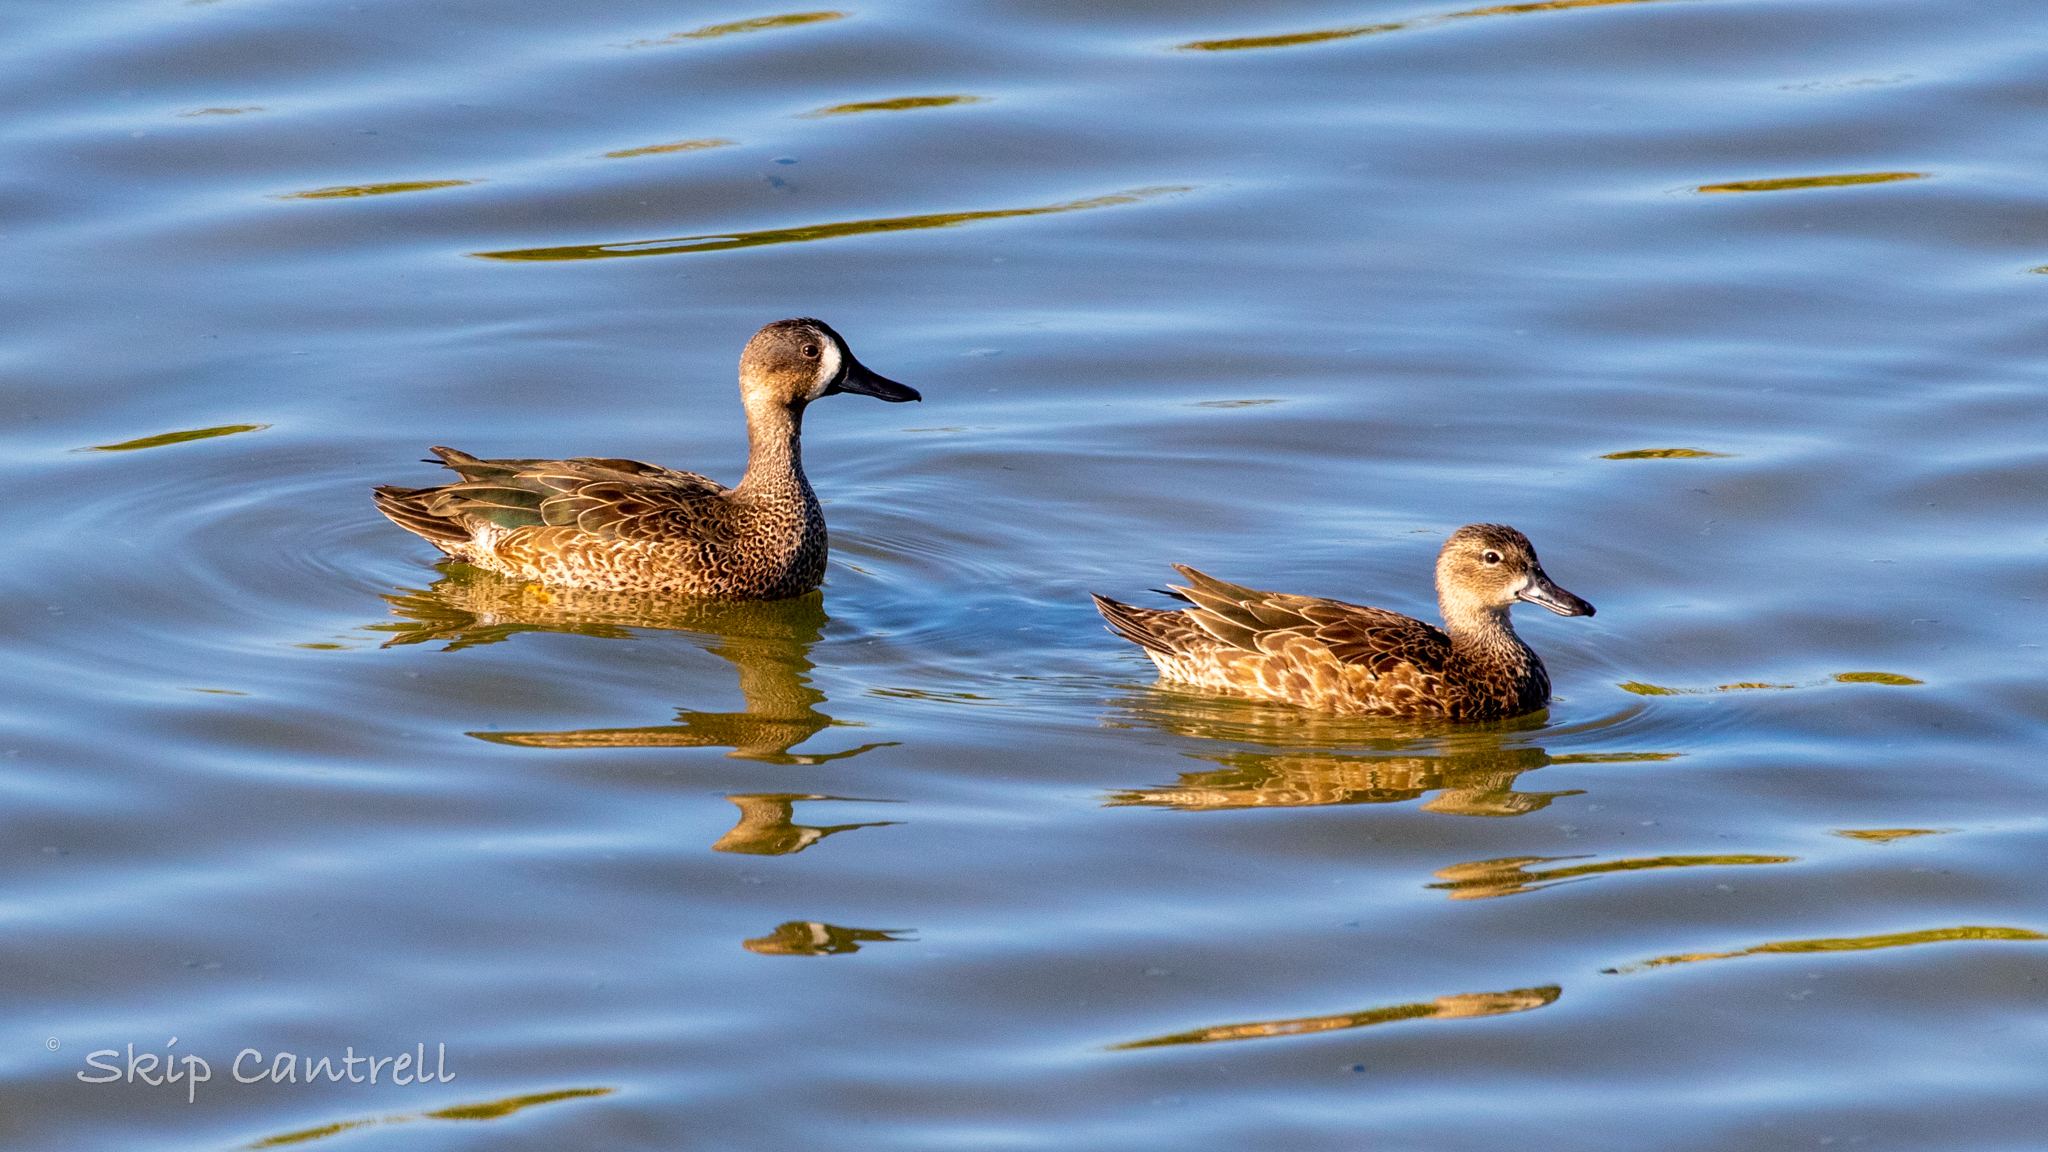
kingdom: Animalia
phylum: Chordata
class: Aves
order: Anseriformes
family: Anatidae
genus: Spatula
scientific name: Spatula discors
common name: Blue-winged teal
